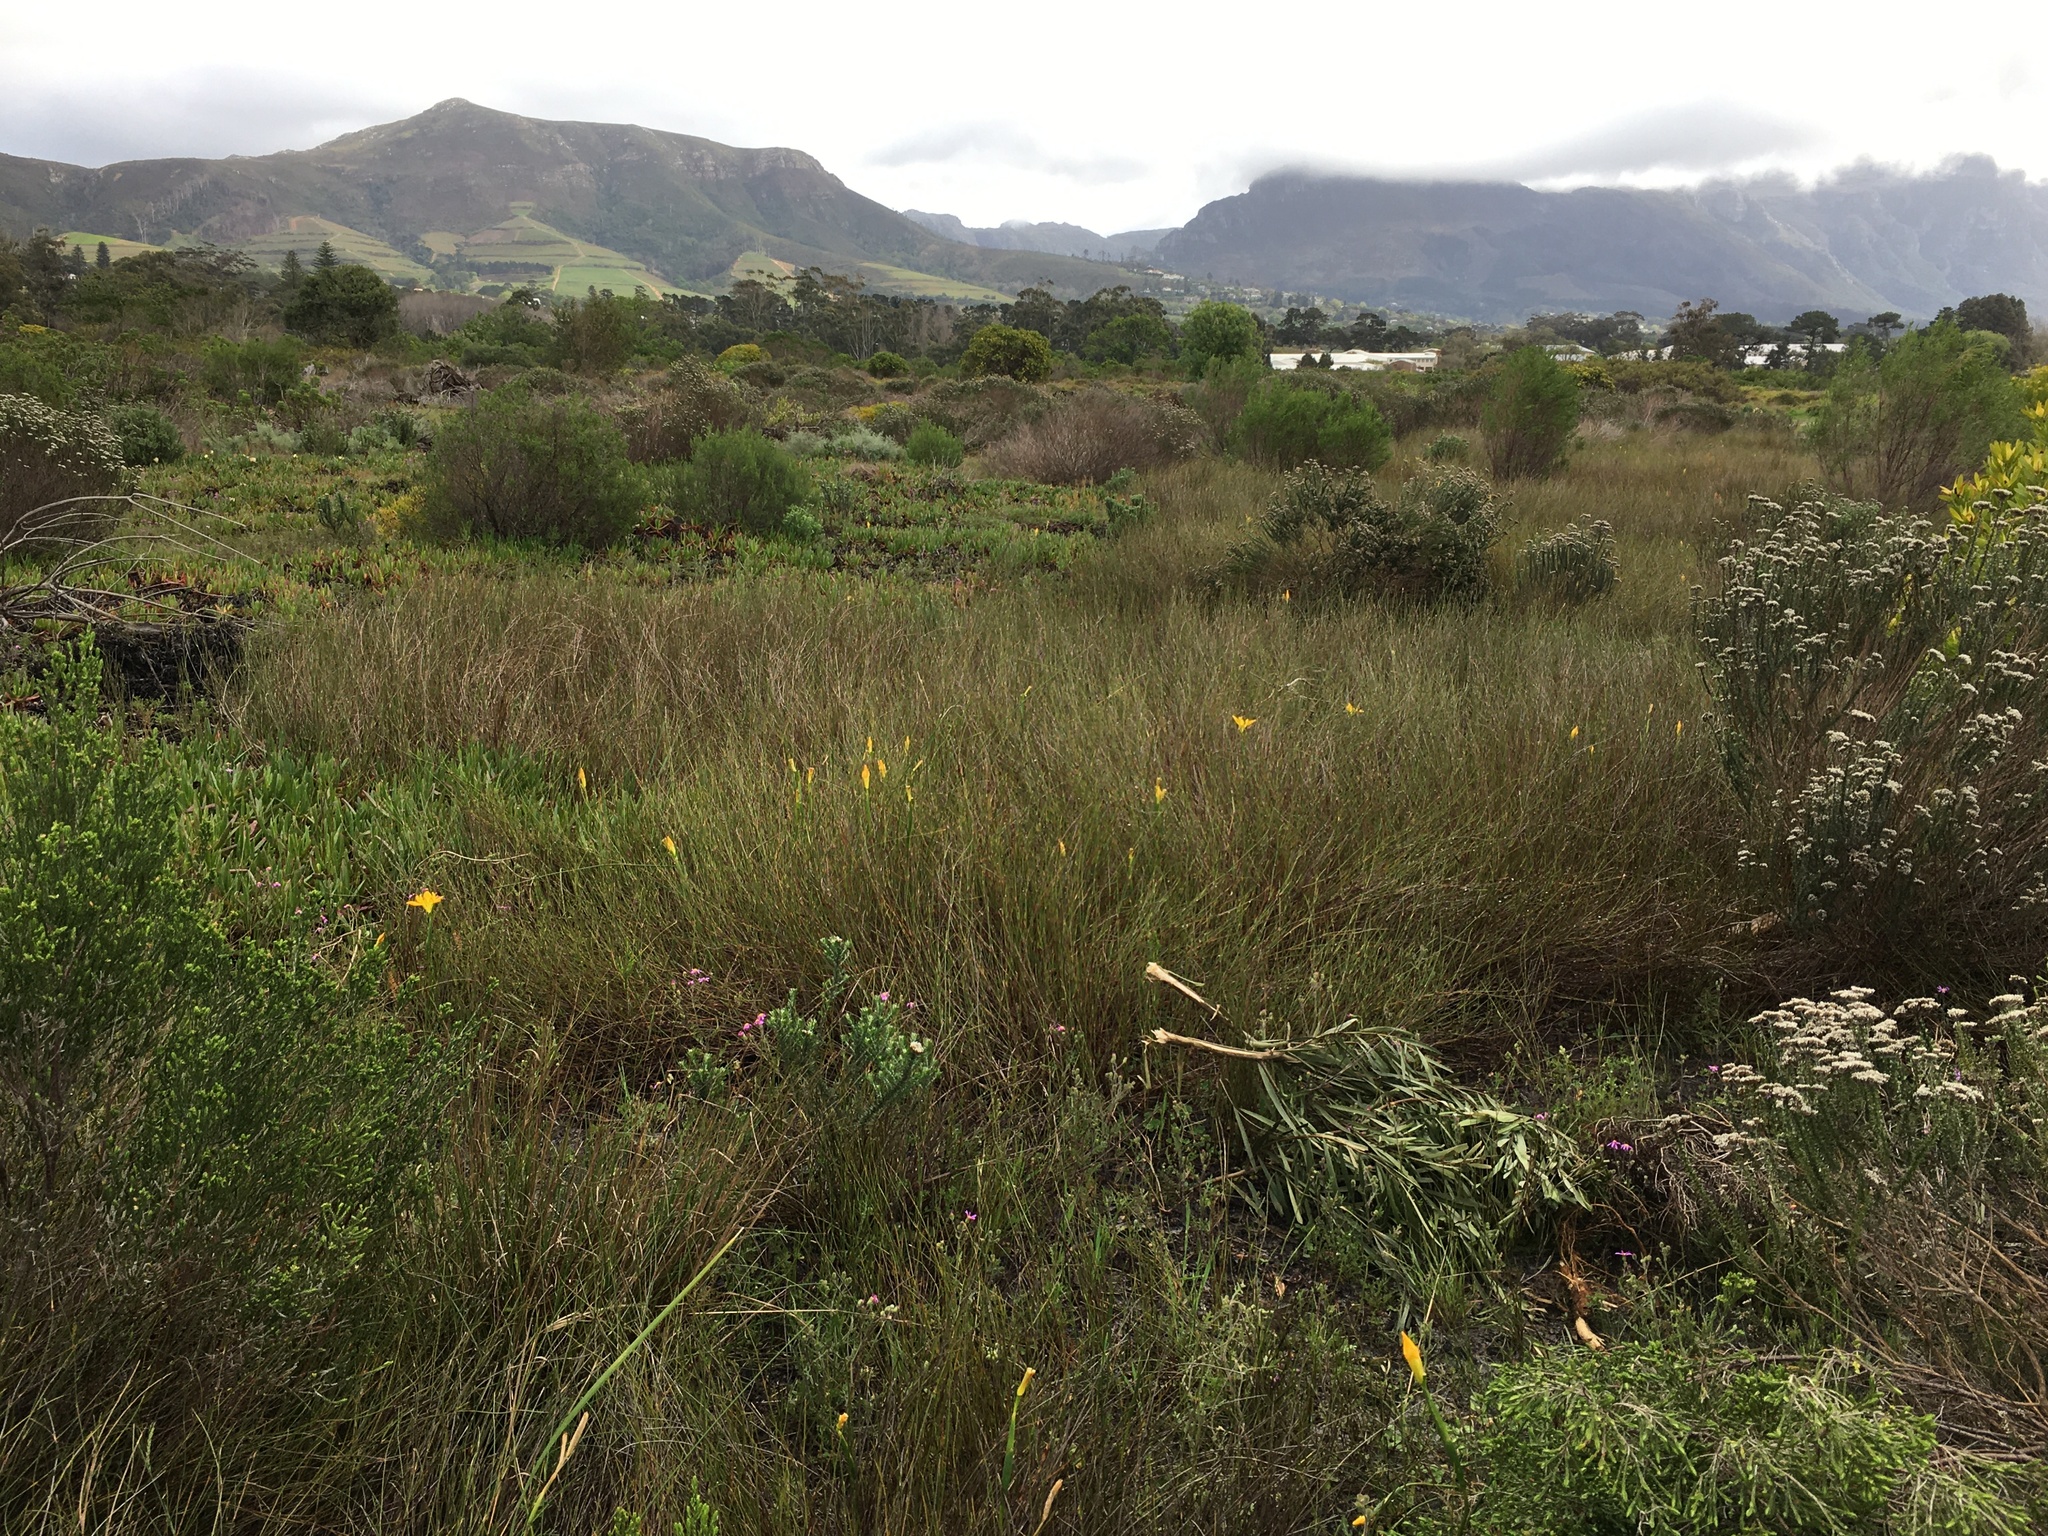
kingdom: Plantae
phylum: Tracheophyta
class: Liliopsida
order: Asparagales
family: Iridaceae
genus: Moraea
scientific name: Moraea neglecta
